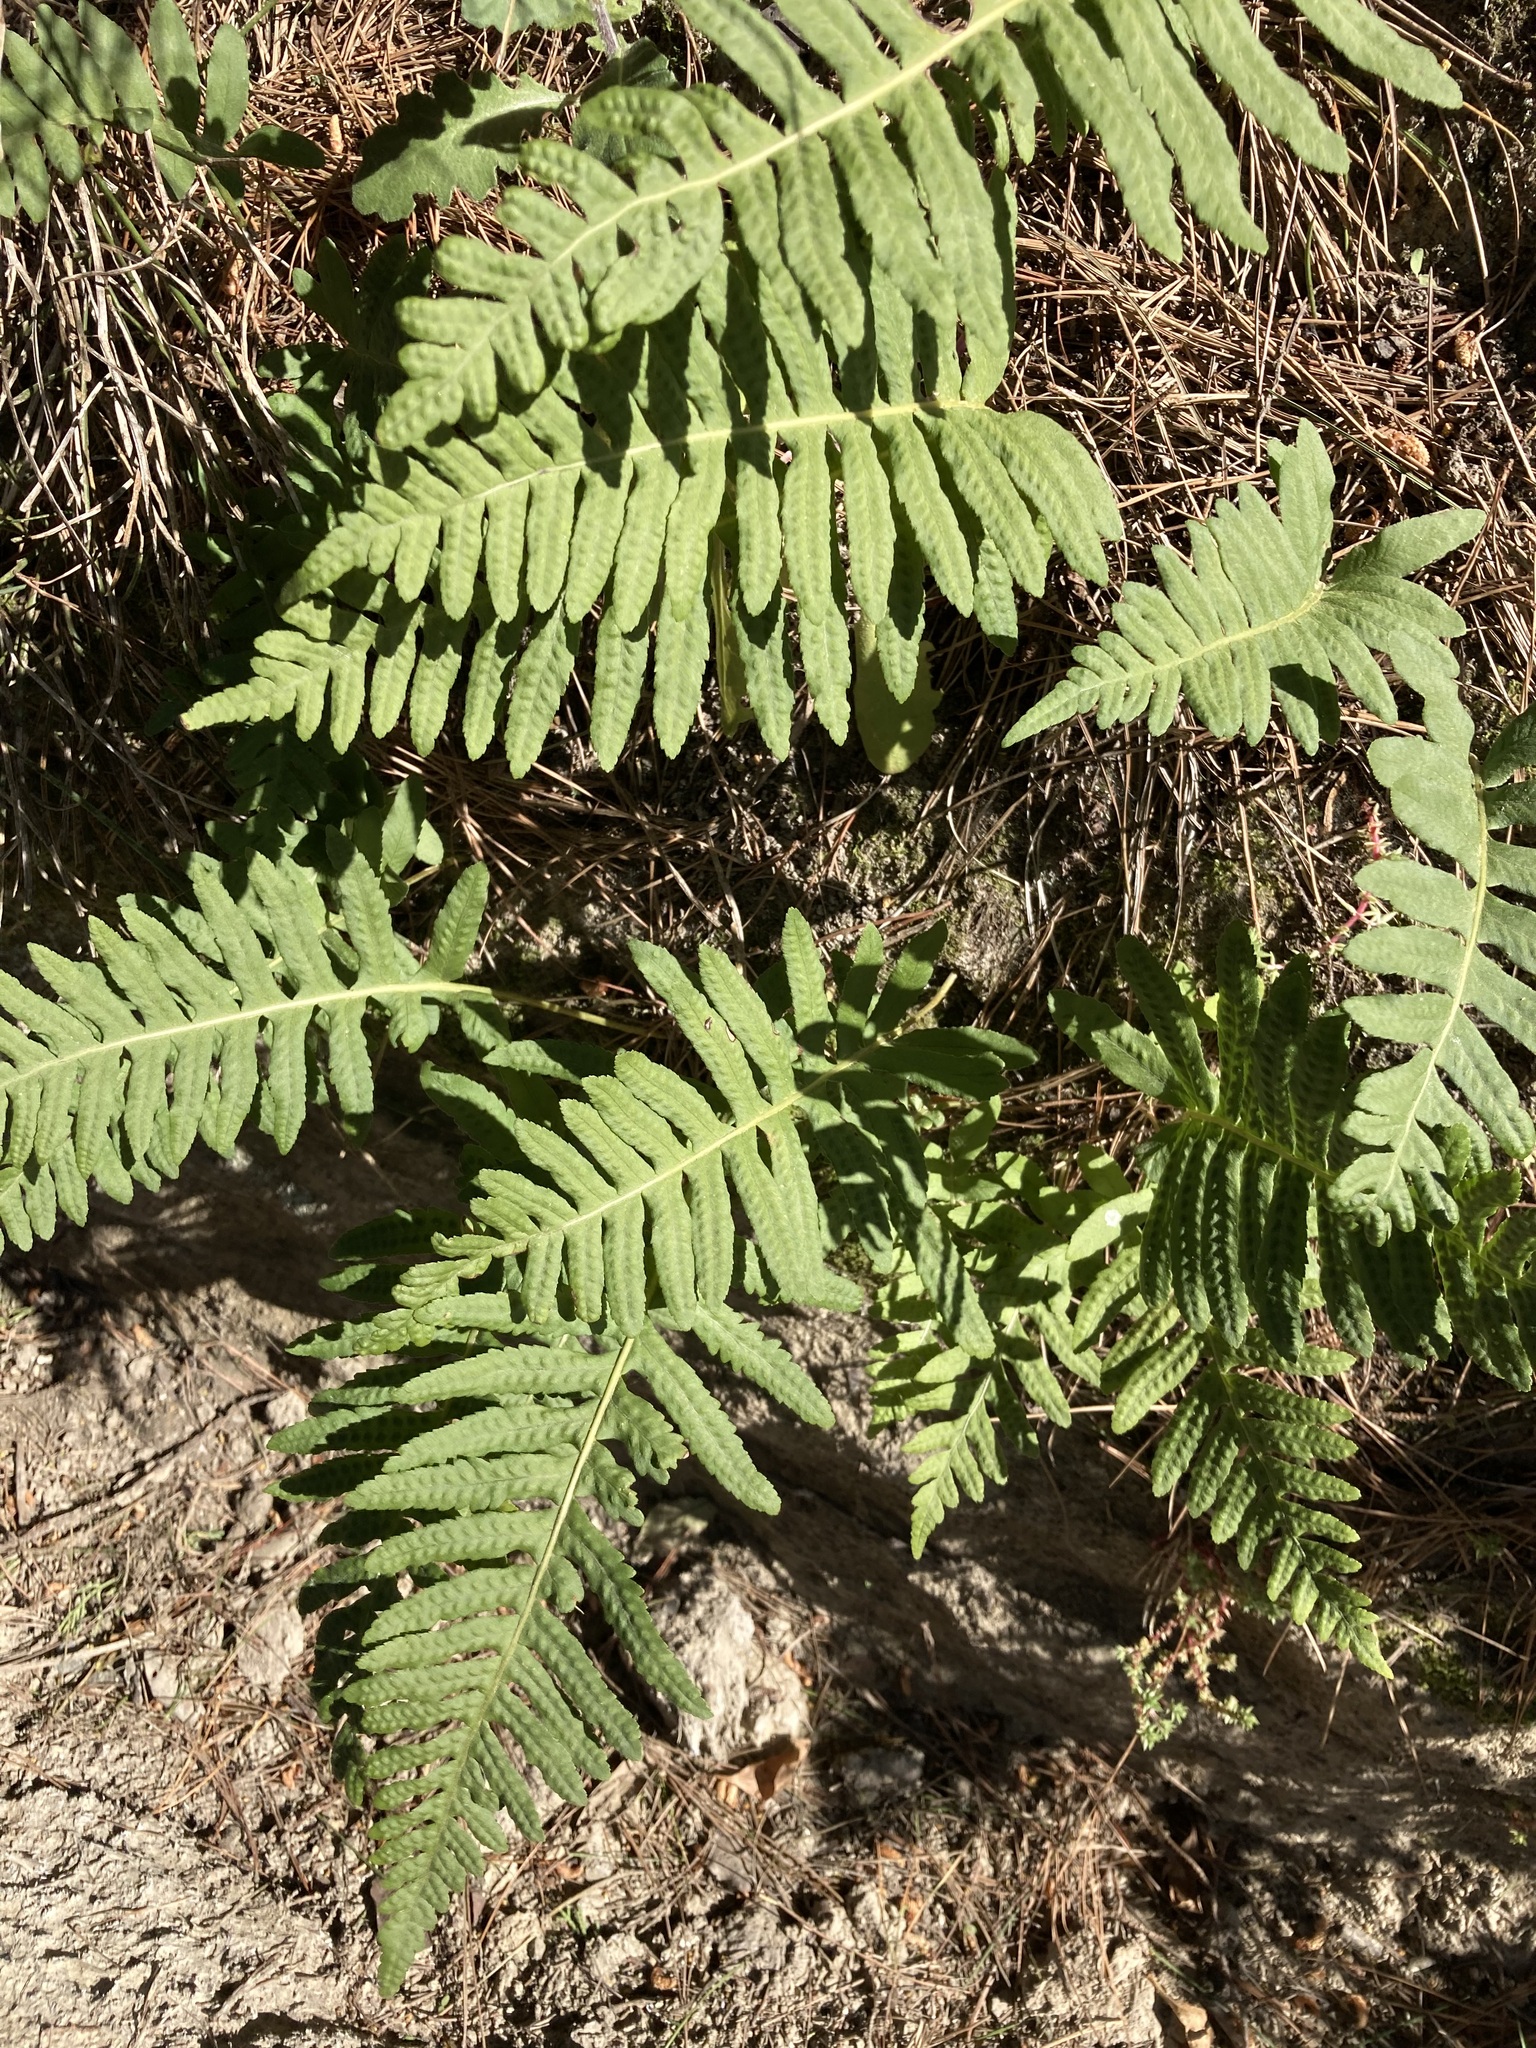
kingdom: Plantae
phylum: Tracheophyta
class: Polypodiopsida
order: Polypodiales
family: Polypodiaceae
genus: Polypodium
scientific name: Polypodium vulgare
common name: Common polypody
